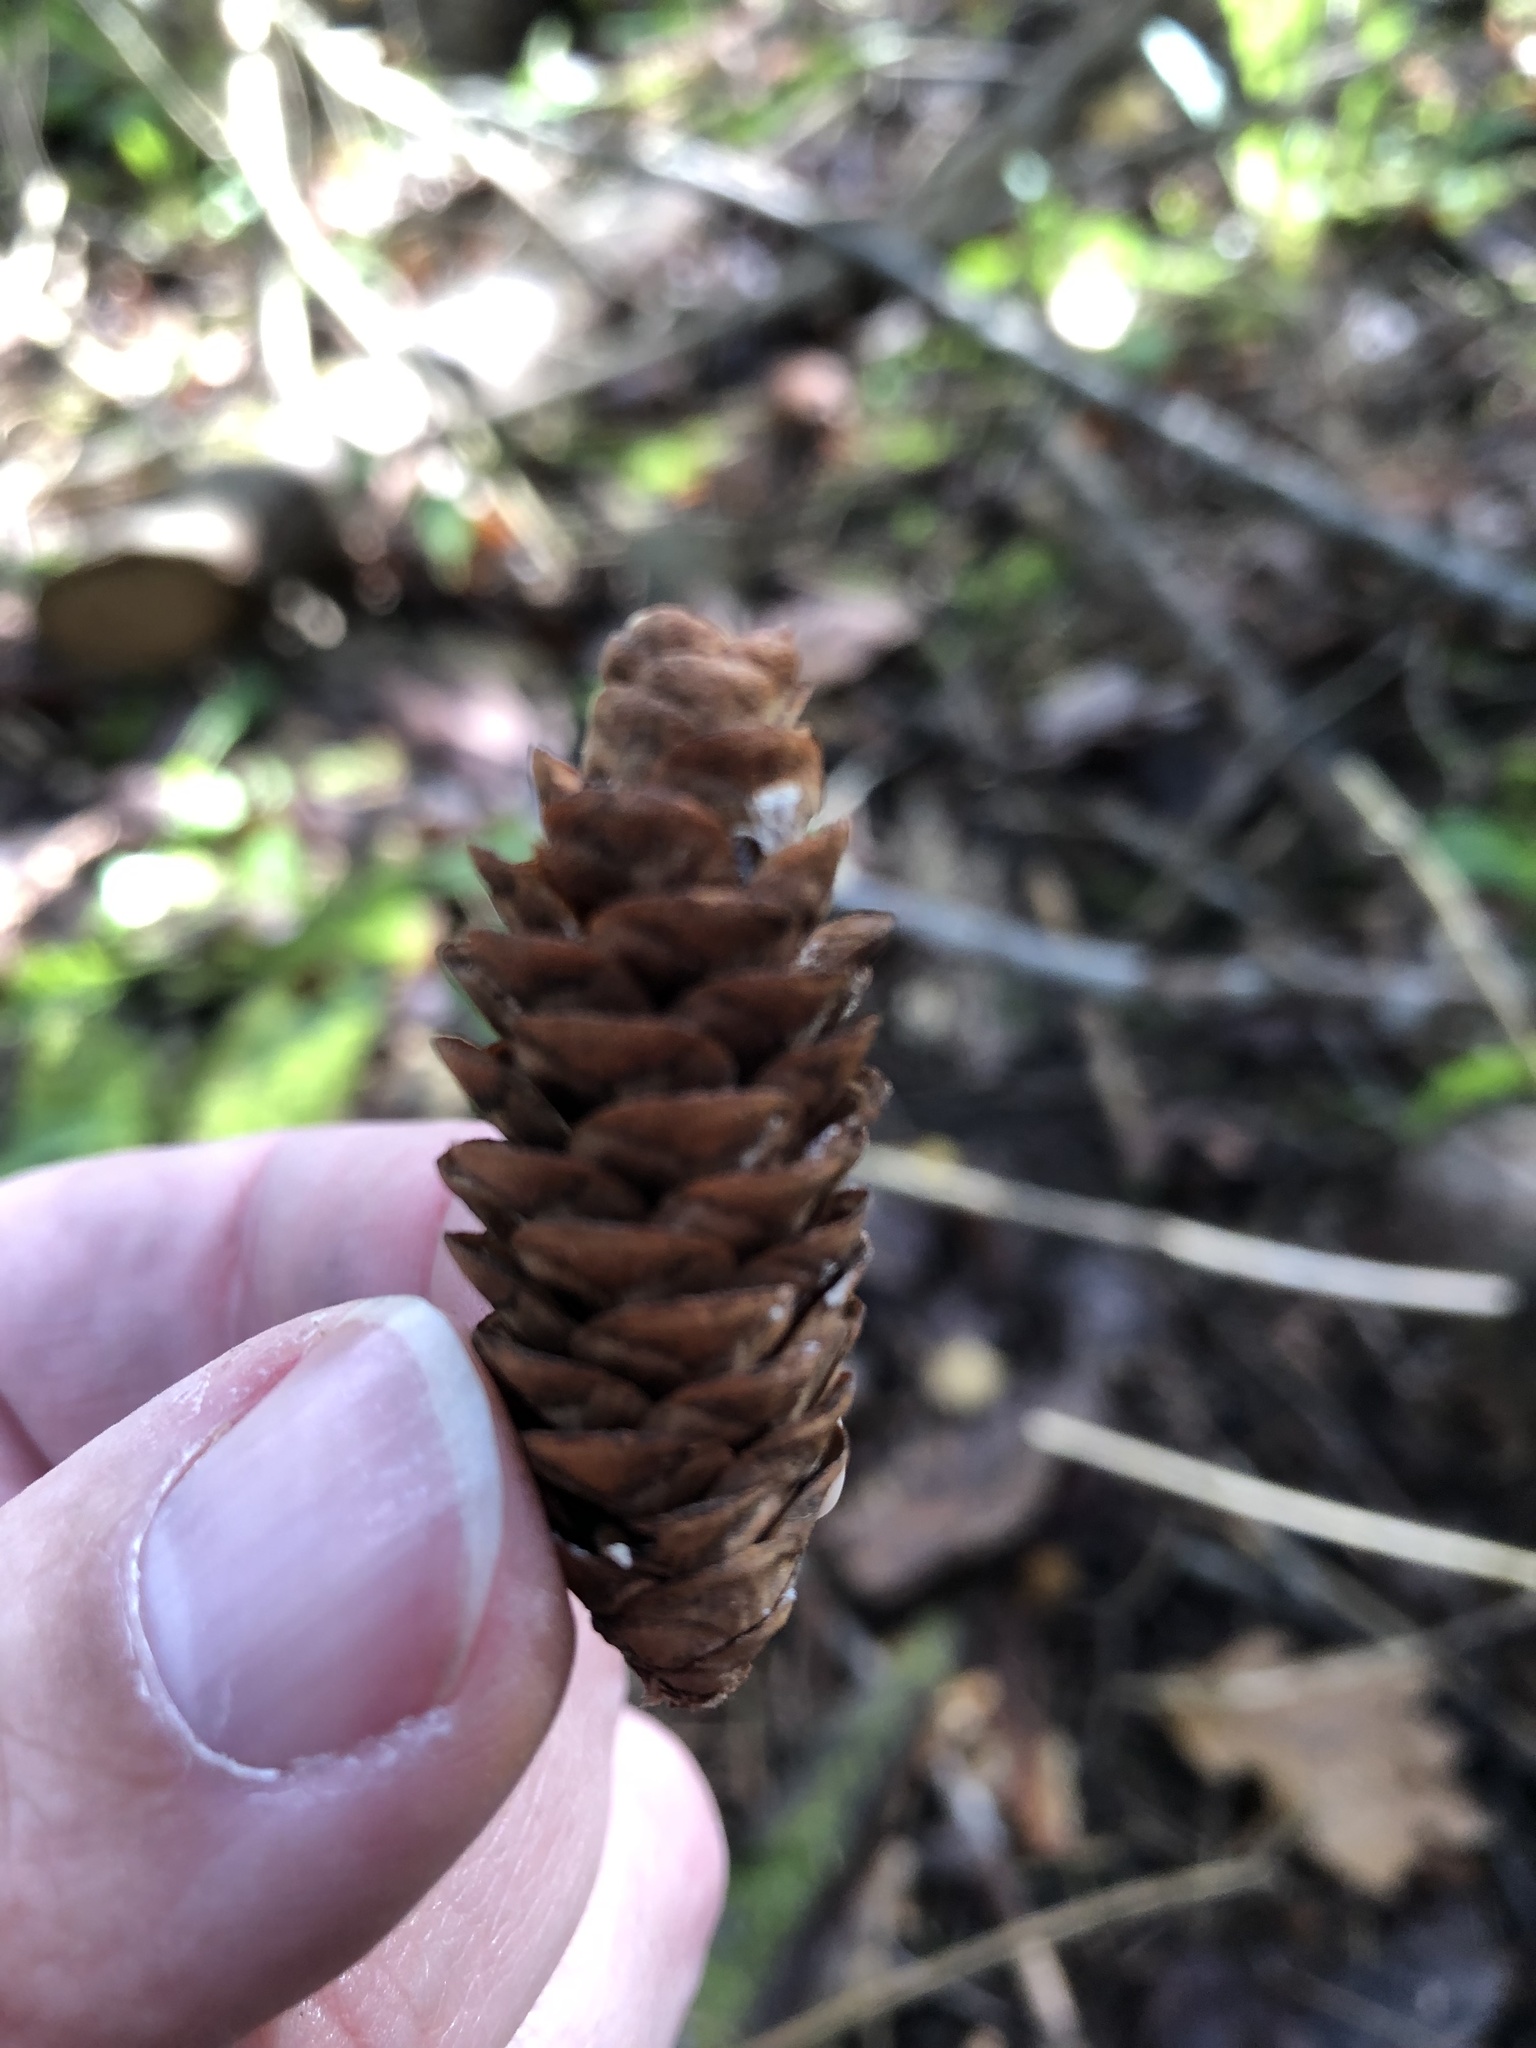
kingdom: Plantae
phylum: Tracheophyta
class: Pinopsida
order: Pinales
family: Pinaceae
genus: Picea
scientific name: Picea glauca
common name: White spruce
